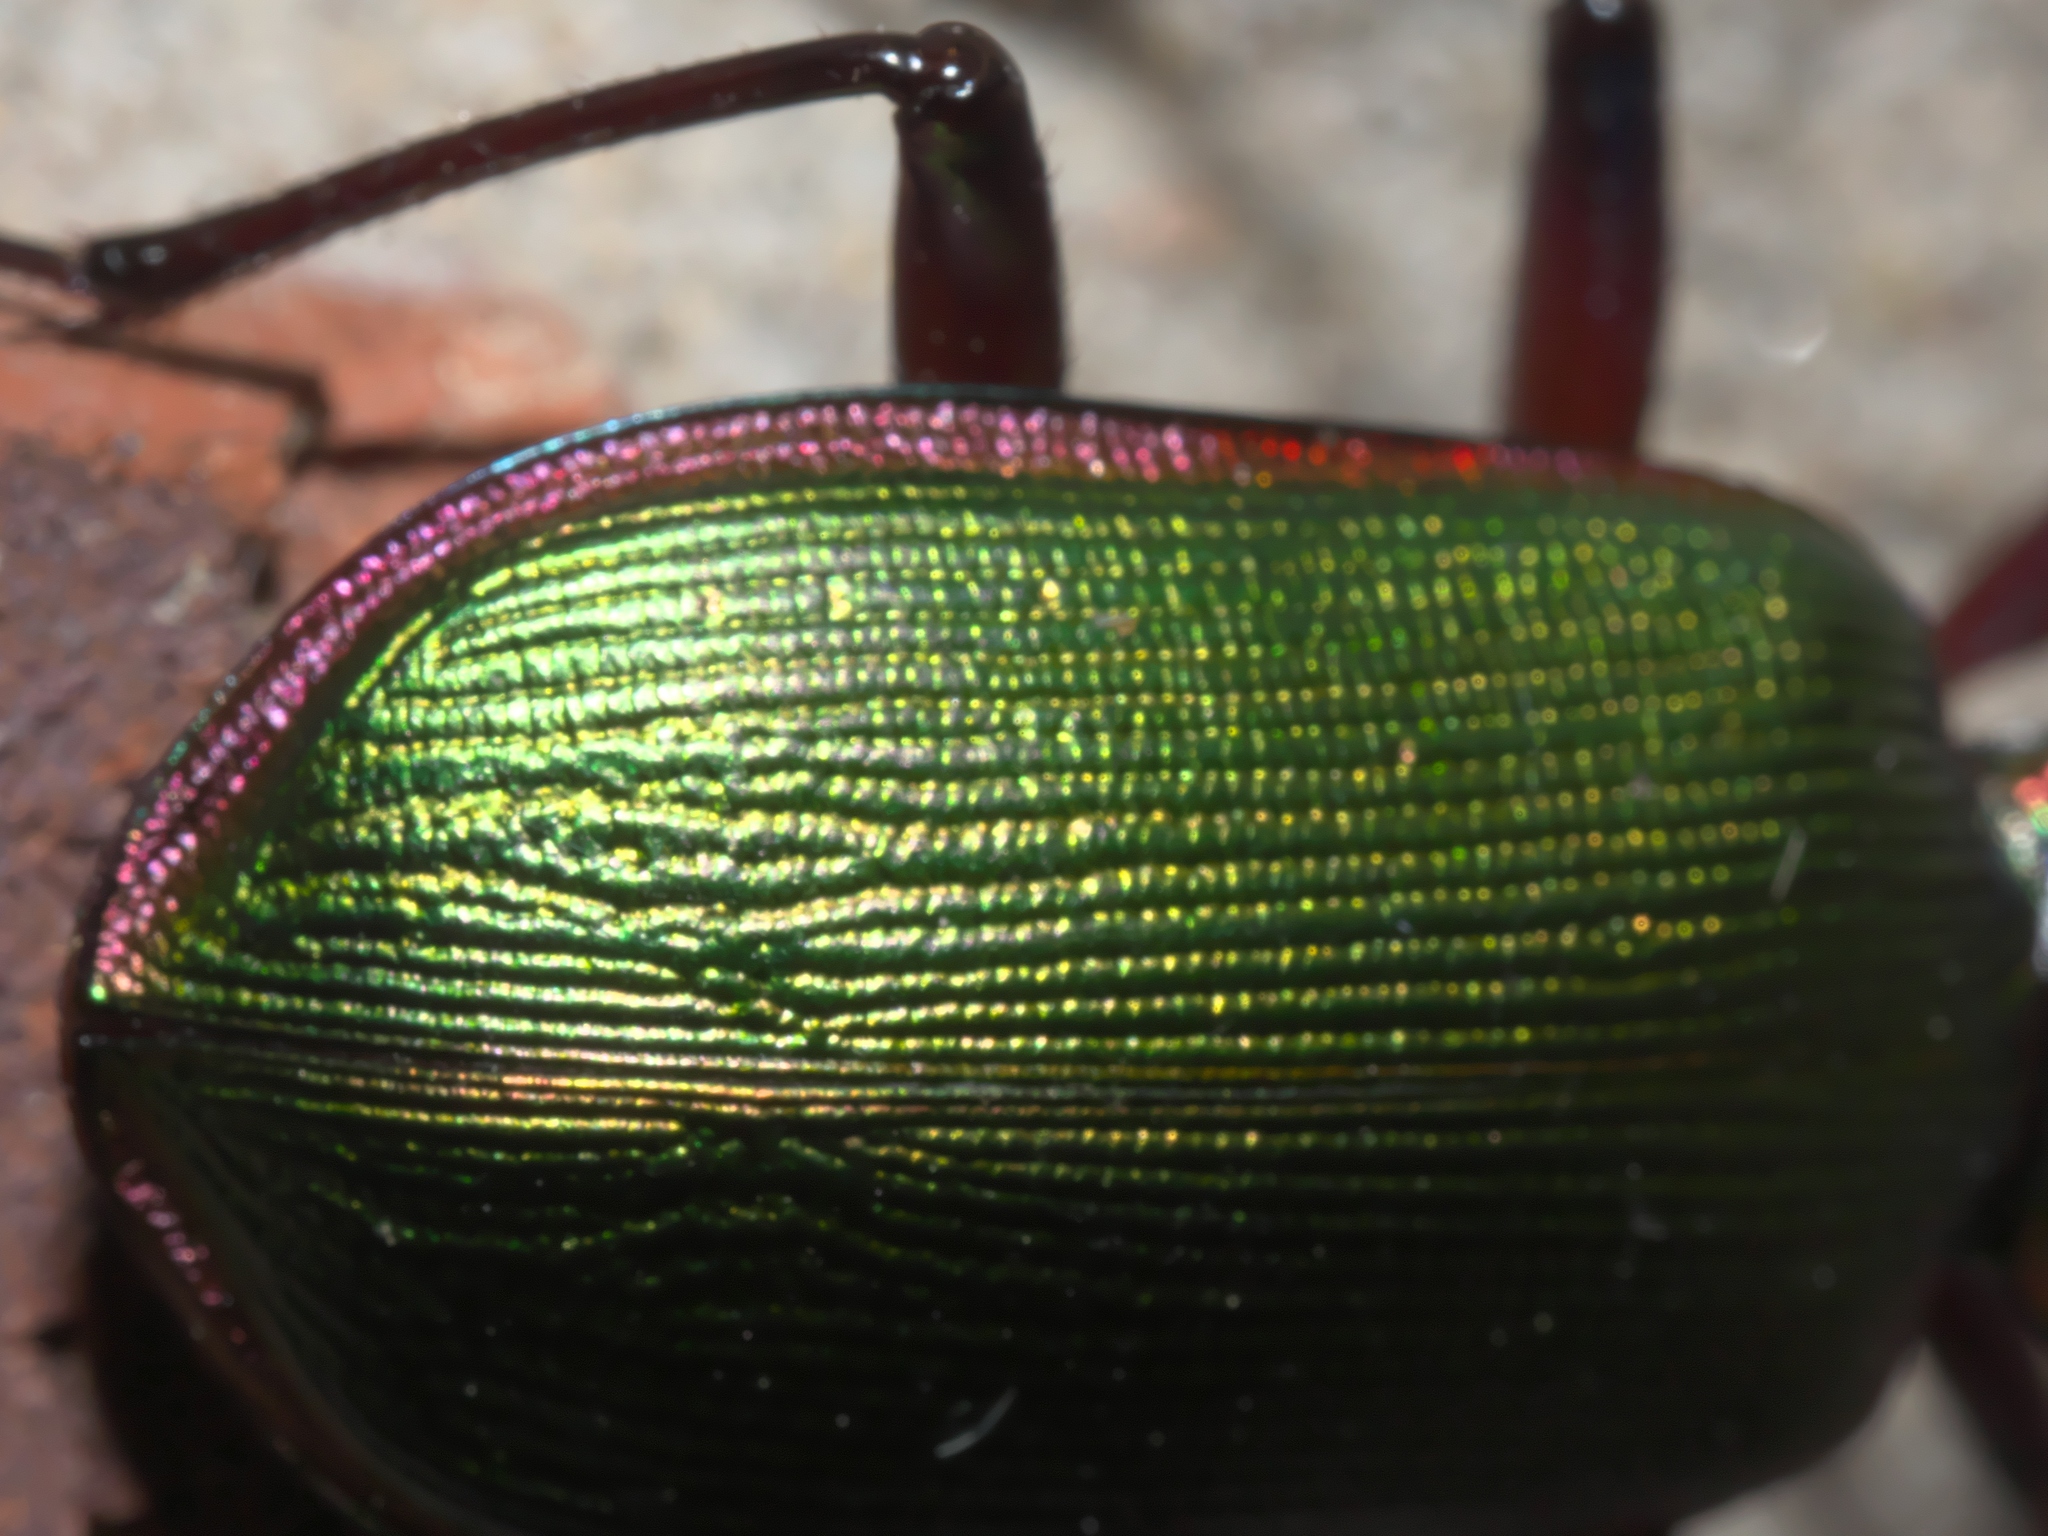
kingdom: Animalia
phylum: Arthropoda
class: Insecta
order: Coleoptera
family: Carabidae
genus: Calosoma
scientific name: Calosoma scrutator
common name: Fiery searcher beetle
